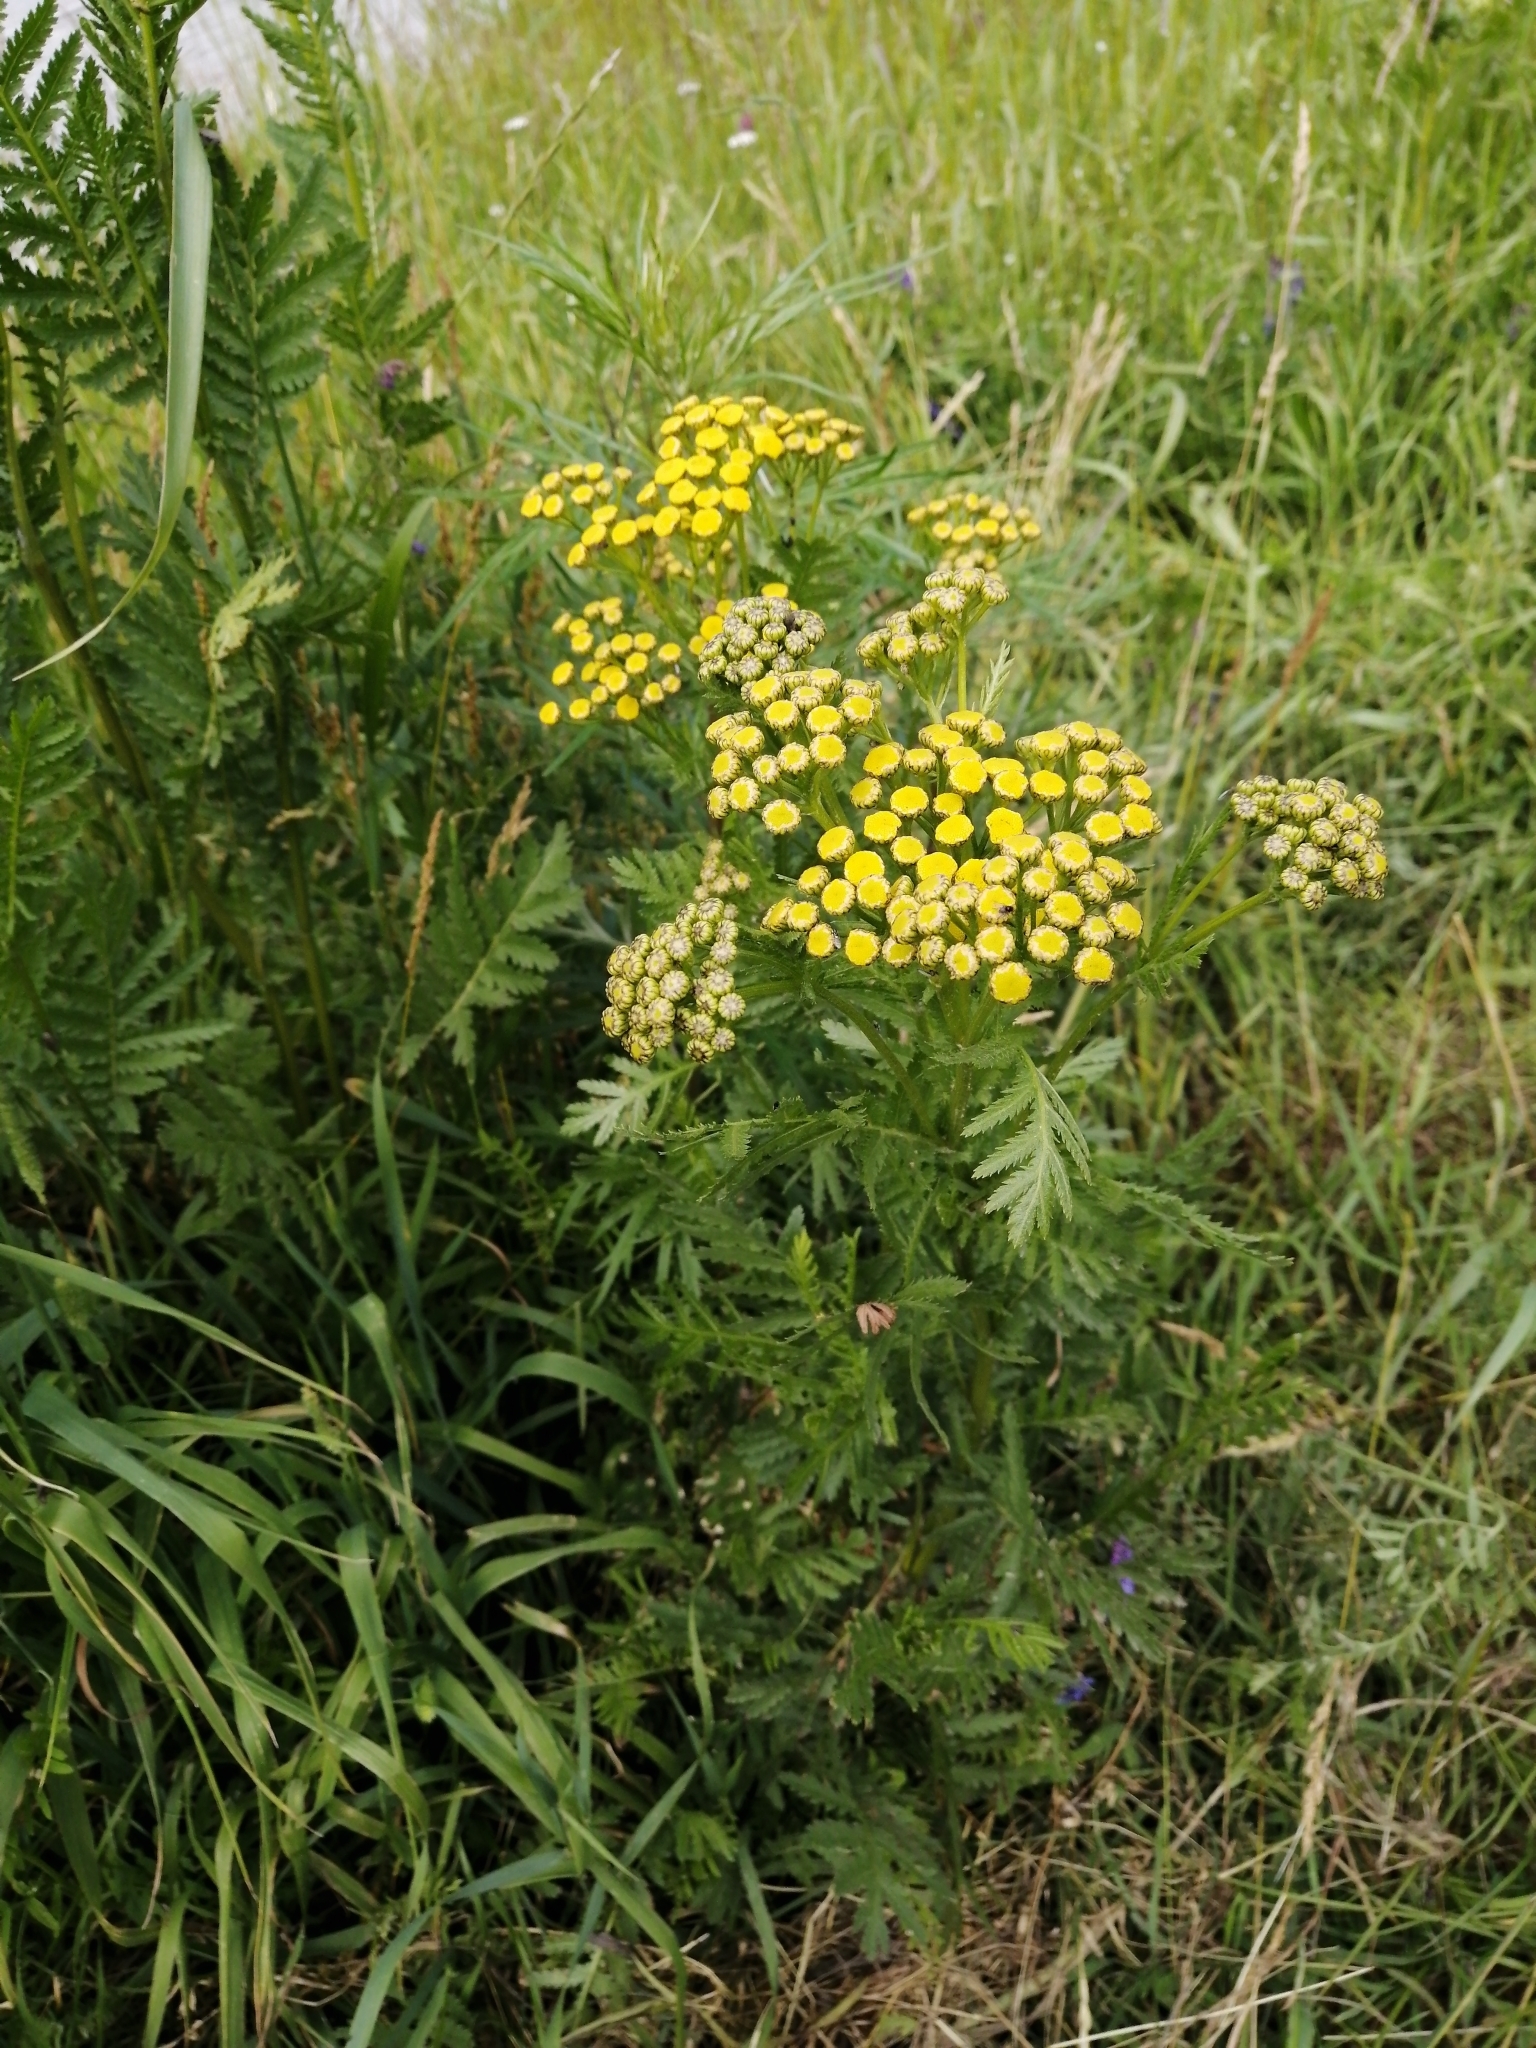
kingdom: Plantae
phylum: Tracheophyta
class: Magnoliopsida
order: Asterales
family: Asteraceae
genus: Tanacetum
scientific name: Tanacetum vulgare
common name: Common tansy
